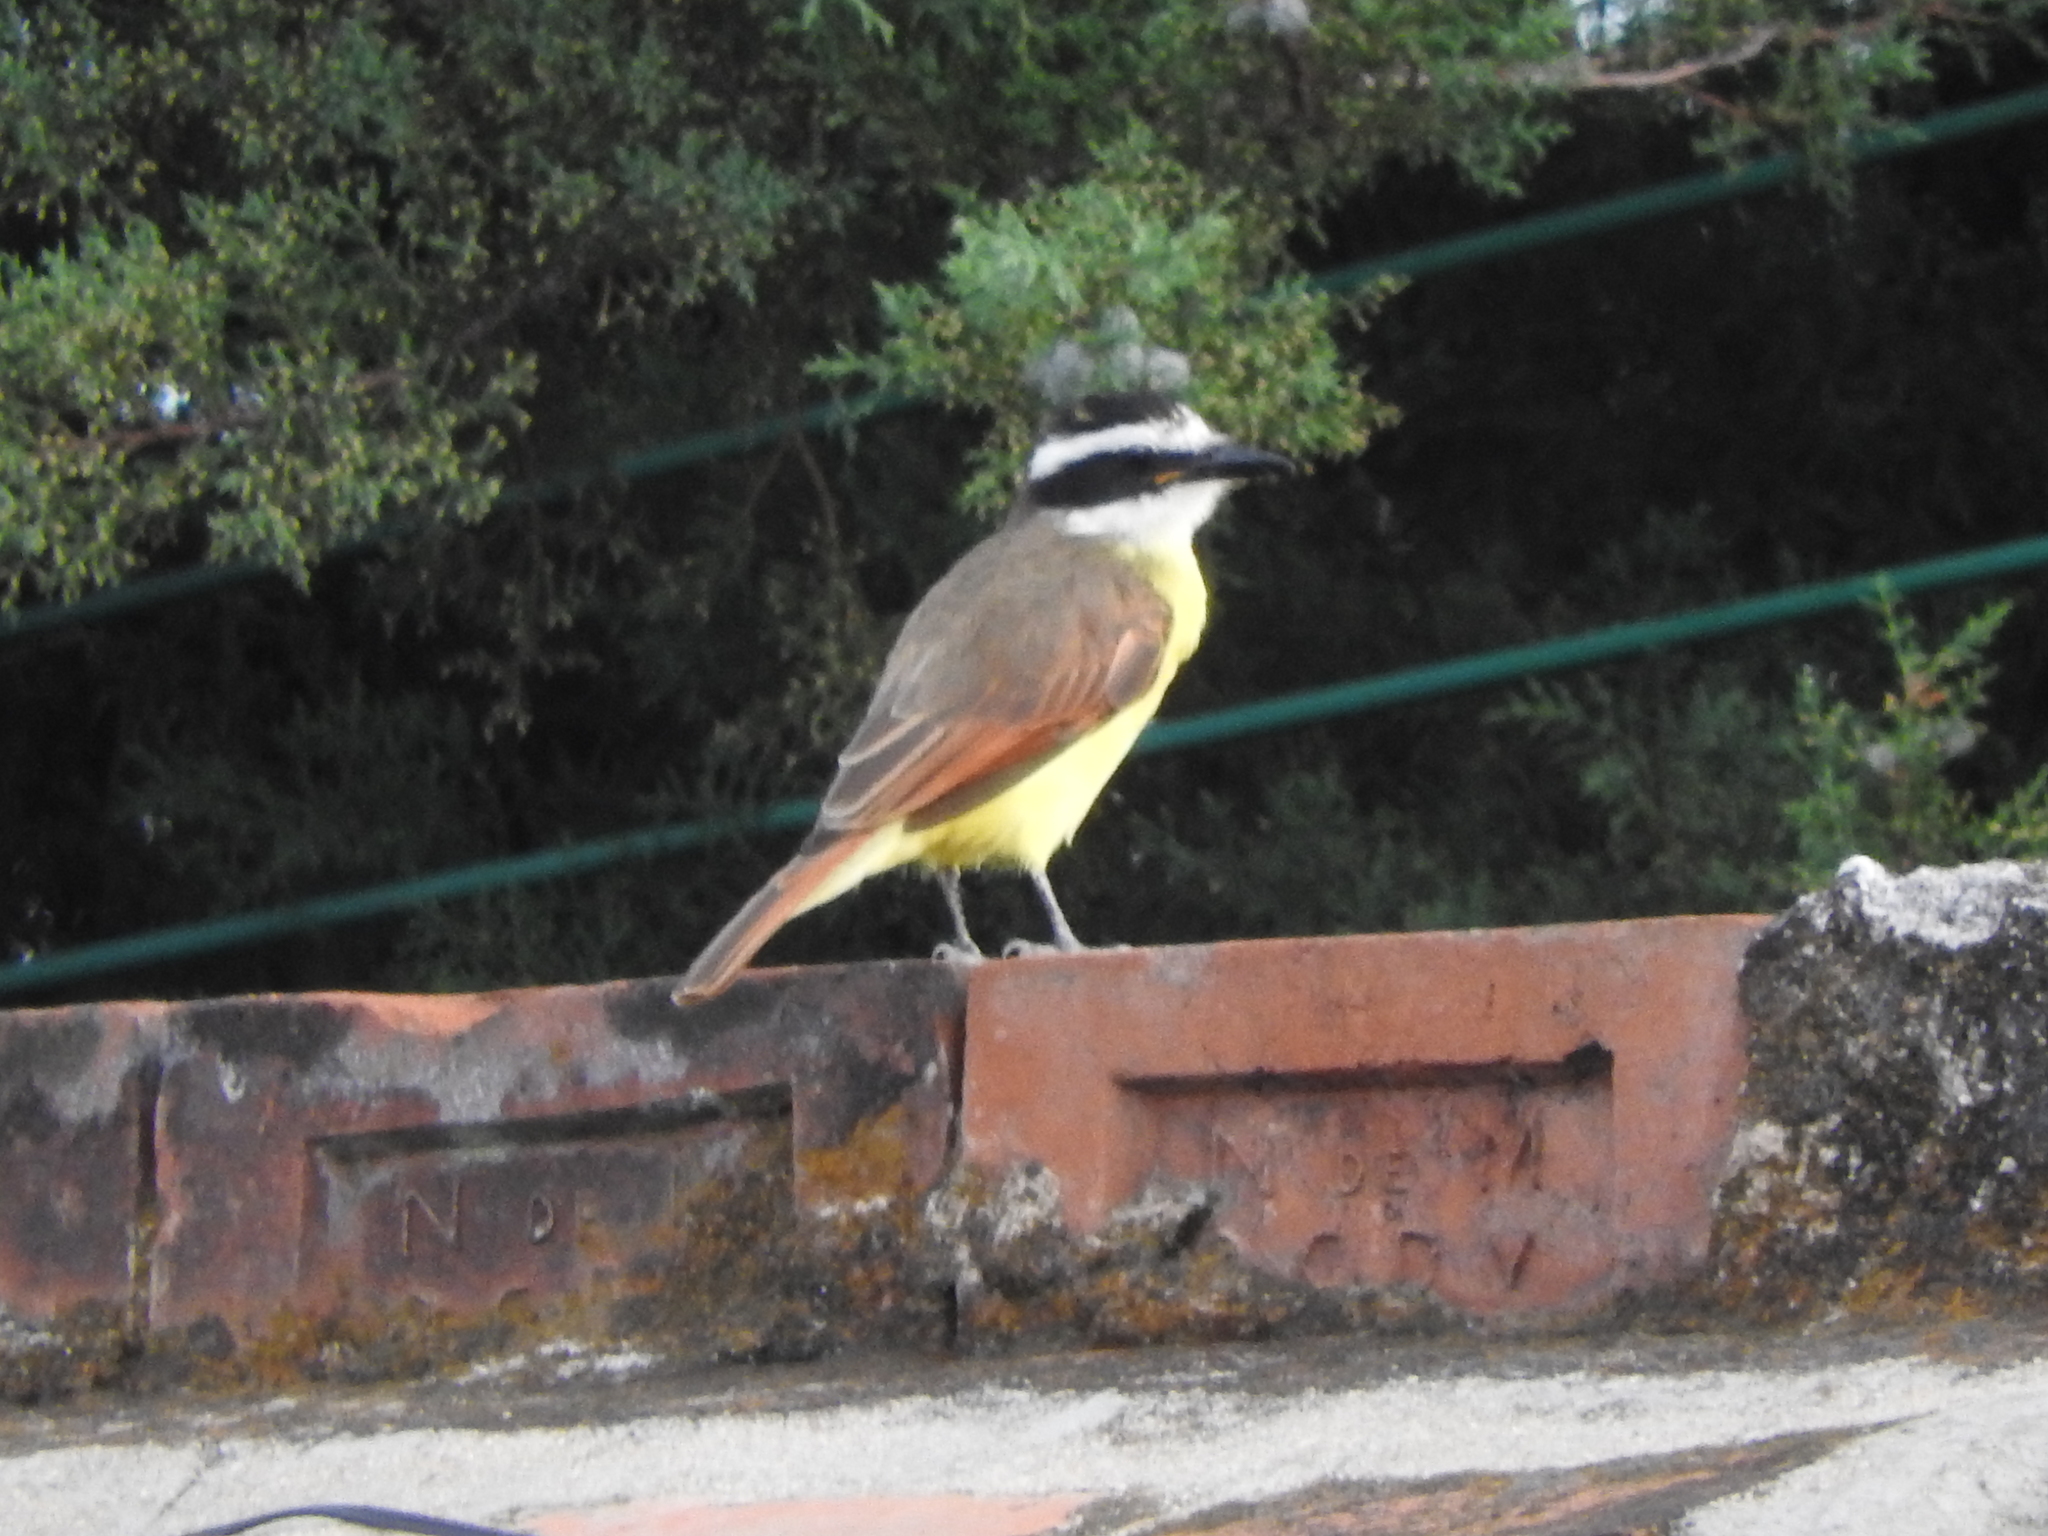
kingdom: Animalia
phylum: Chordata
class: Aves
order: Passeriformes
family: Tyrannidae
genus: Pitangus
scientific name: Pitangus sulphuratus
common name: Great kiskadee
